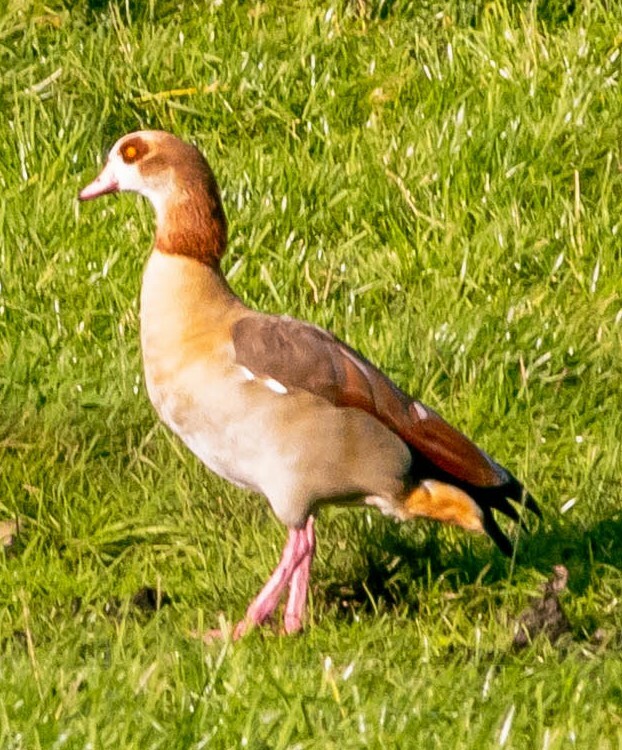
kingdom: Animalia
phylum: Chordata
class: Aves
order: Anseriformes
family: Anatidae
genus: Alopochen
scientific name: Alopochen aegyptiaca
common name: Egyptian goose
